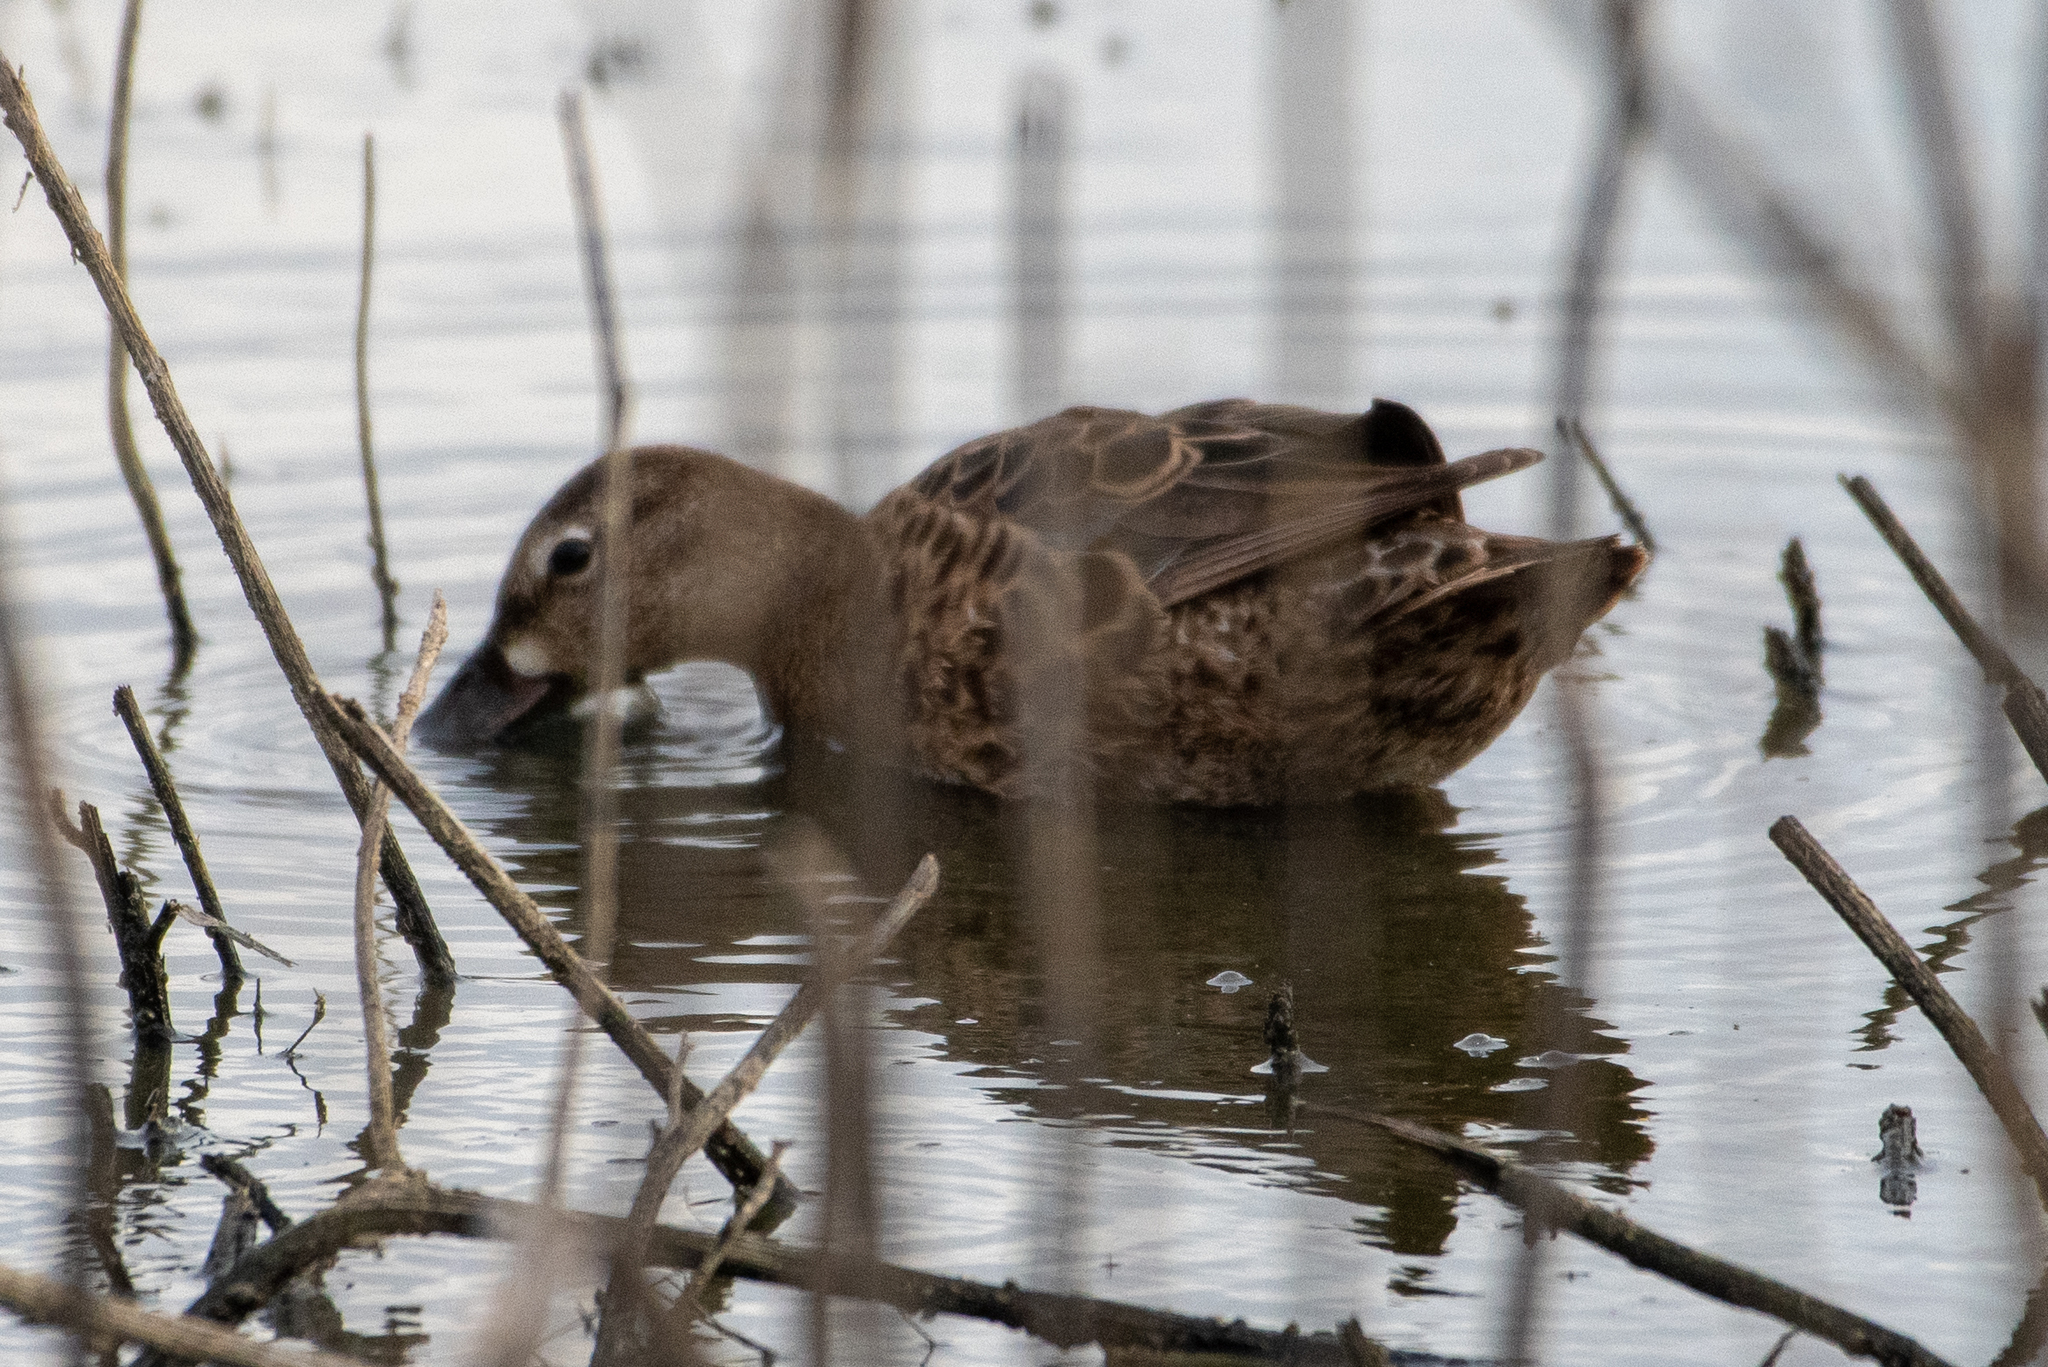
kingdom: Animalia
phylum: Chordata
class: Aves
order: Anseriformes
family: Anatidae
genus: Spatula
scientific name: Spatula discors
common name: Blue-winged teal
